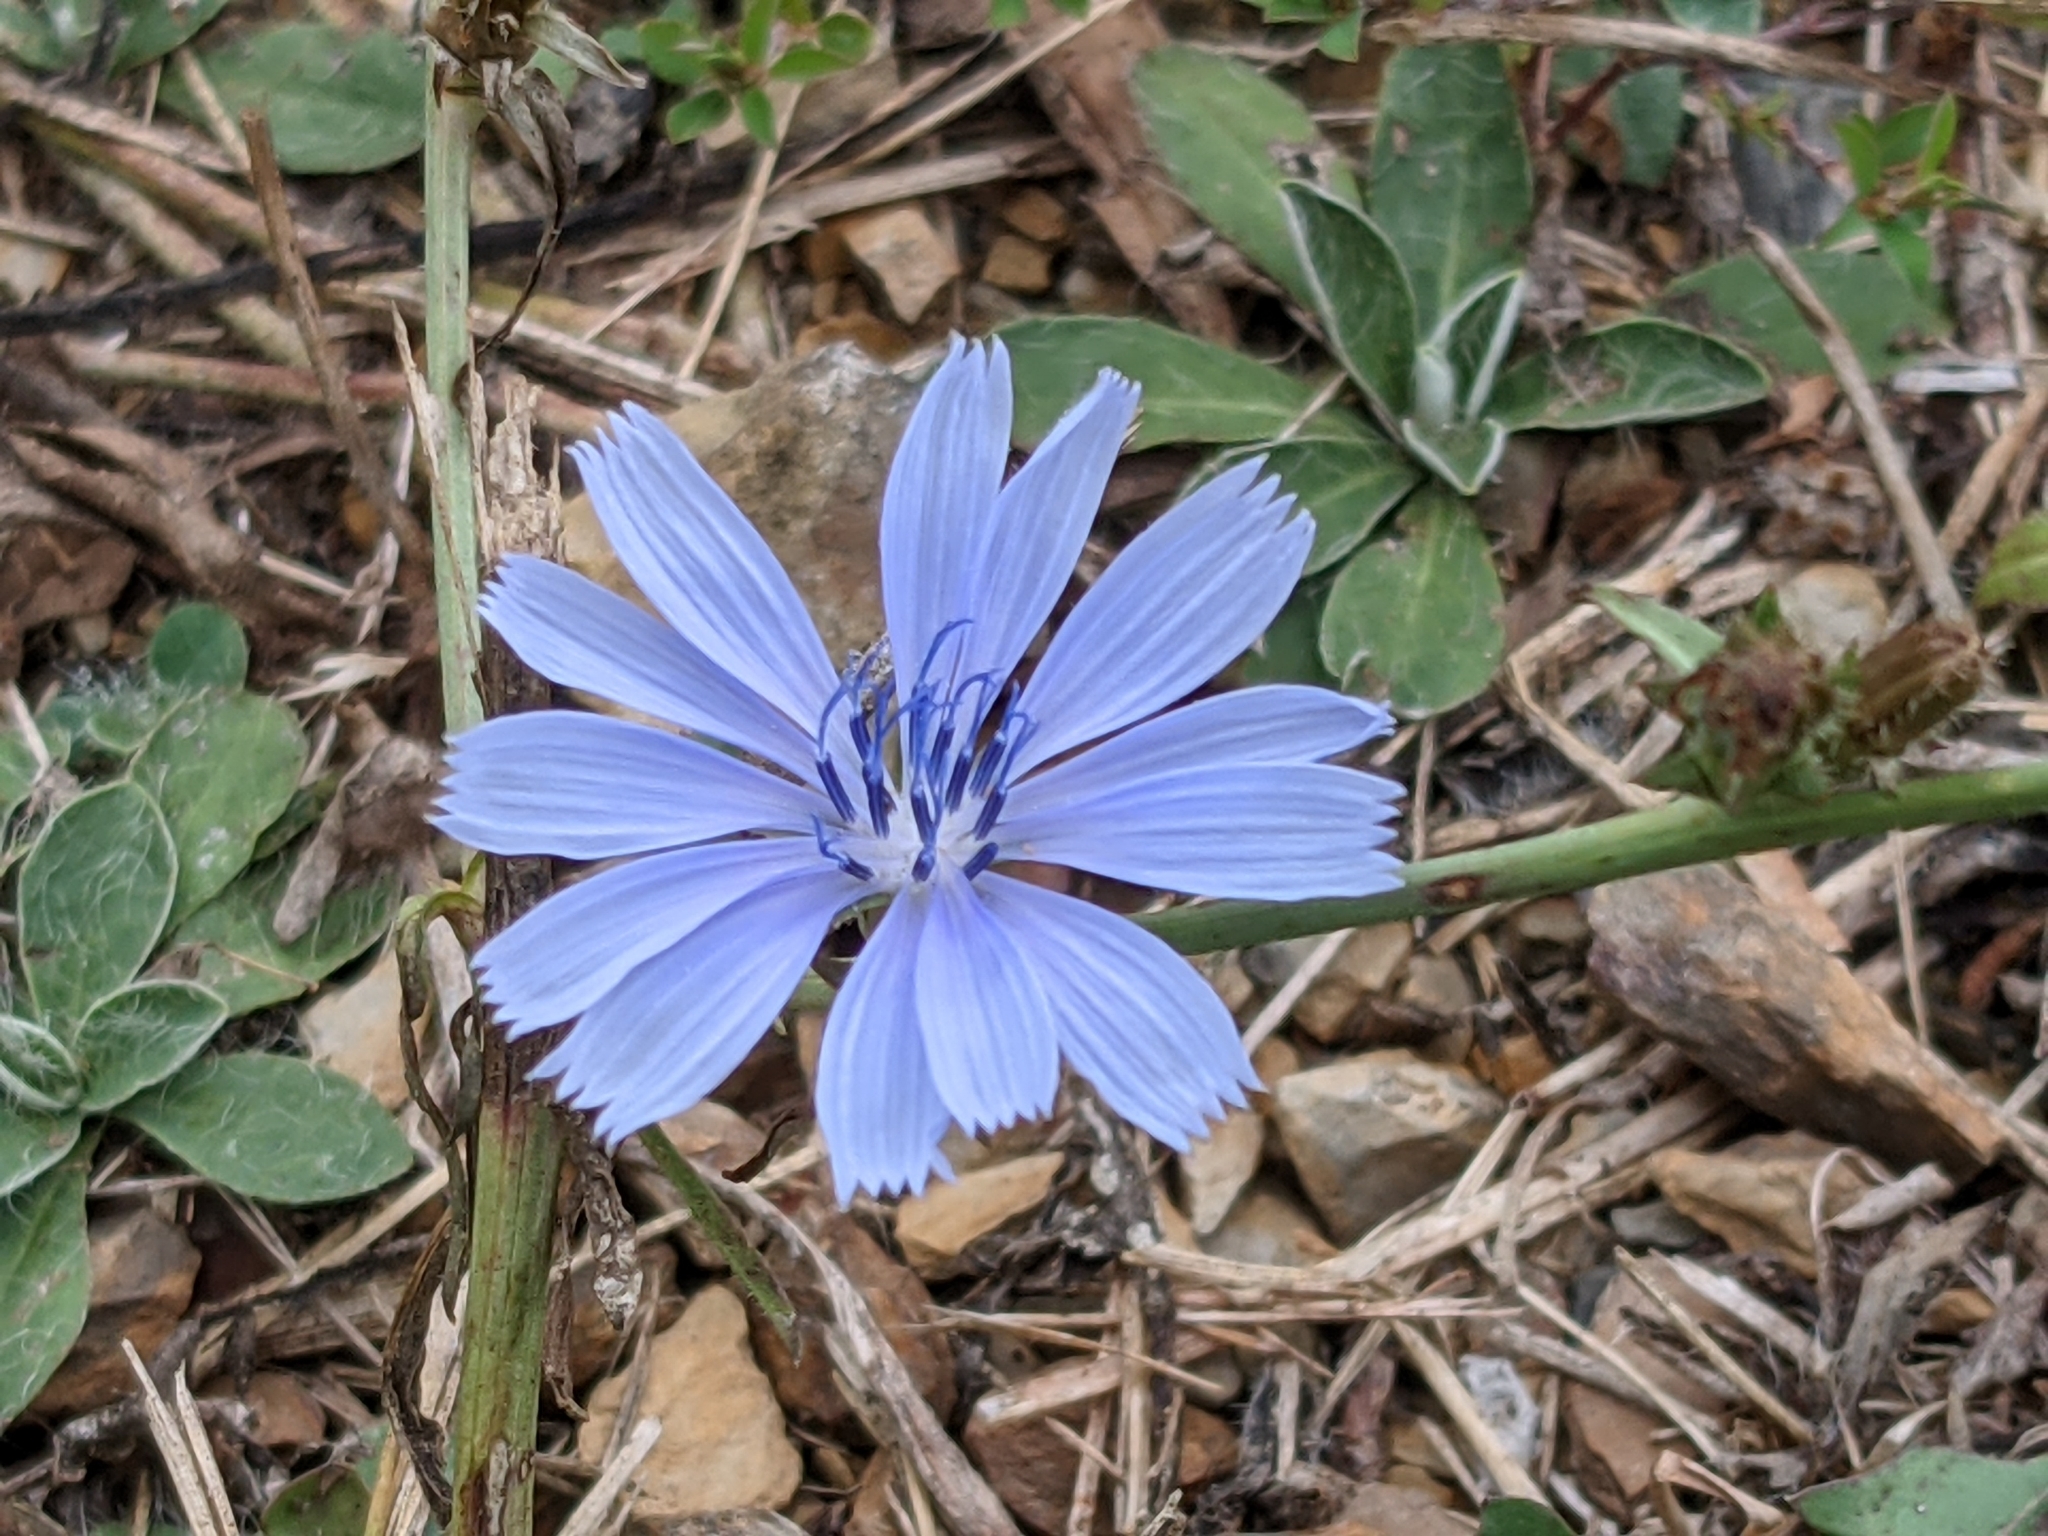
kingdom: Plantae
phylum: Tracheophyta
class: Magnoliopsida
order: Asterales
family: Asteraceae
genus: Cichorium
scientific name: Cichorium intybus
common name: Chicory
